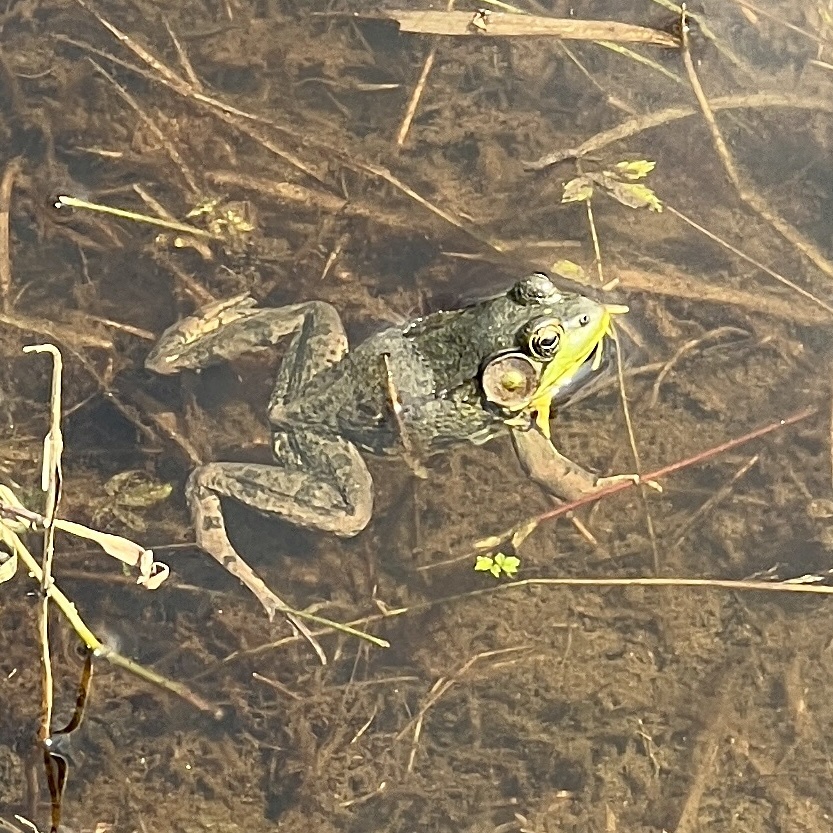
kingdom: Animalia
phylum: Chordata
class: Amphibia
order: Anura
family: Ranidae
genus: Lithobates
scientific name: Lithobates clamitans
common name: Green frog
